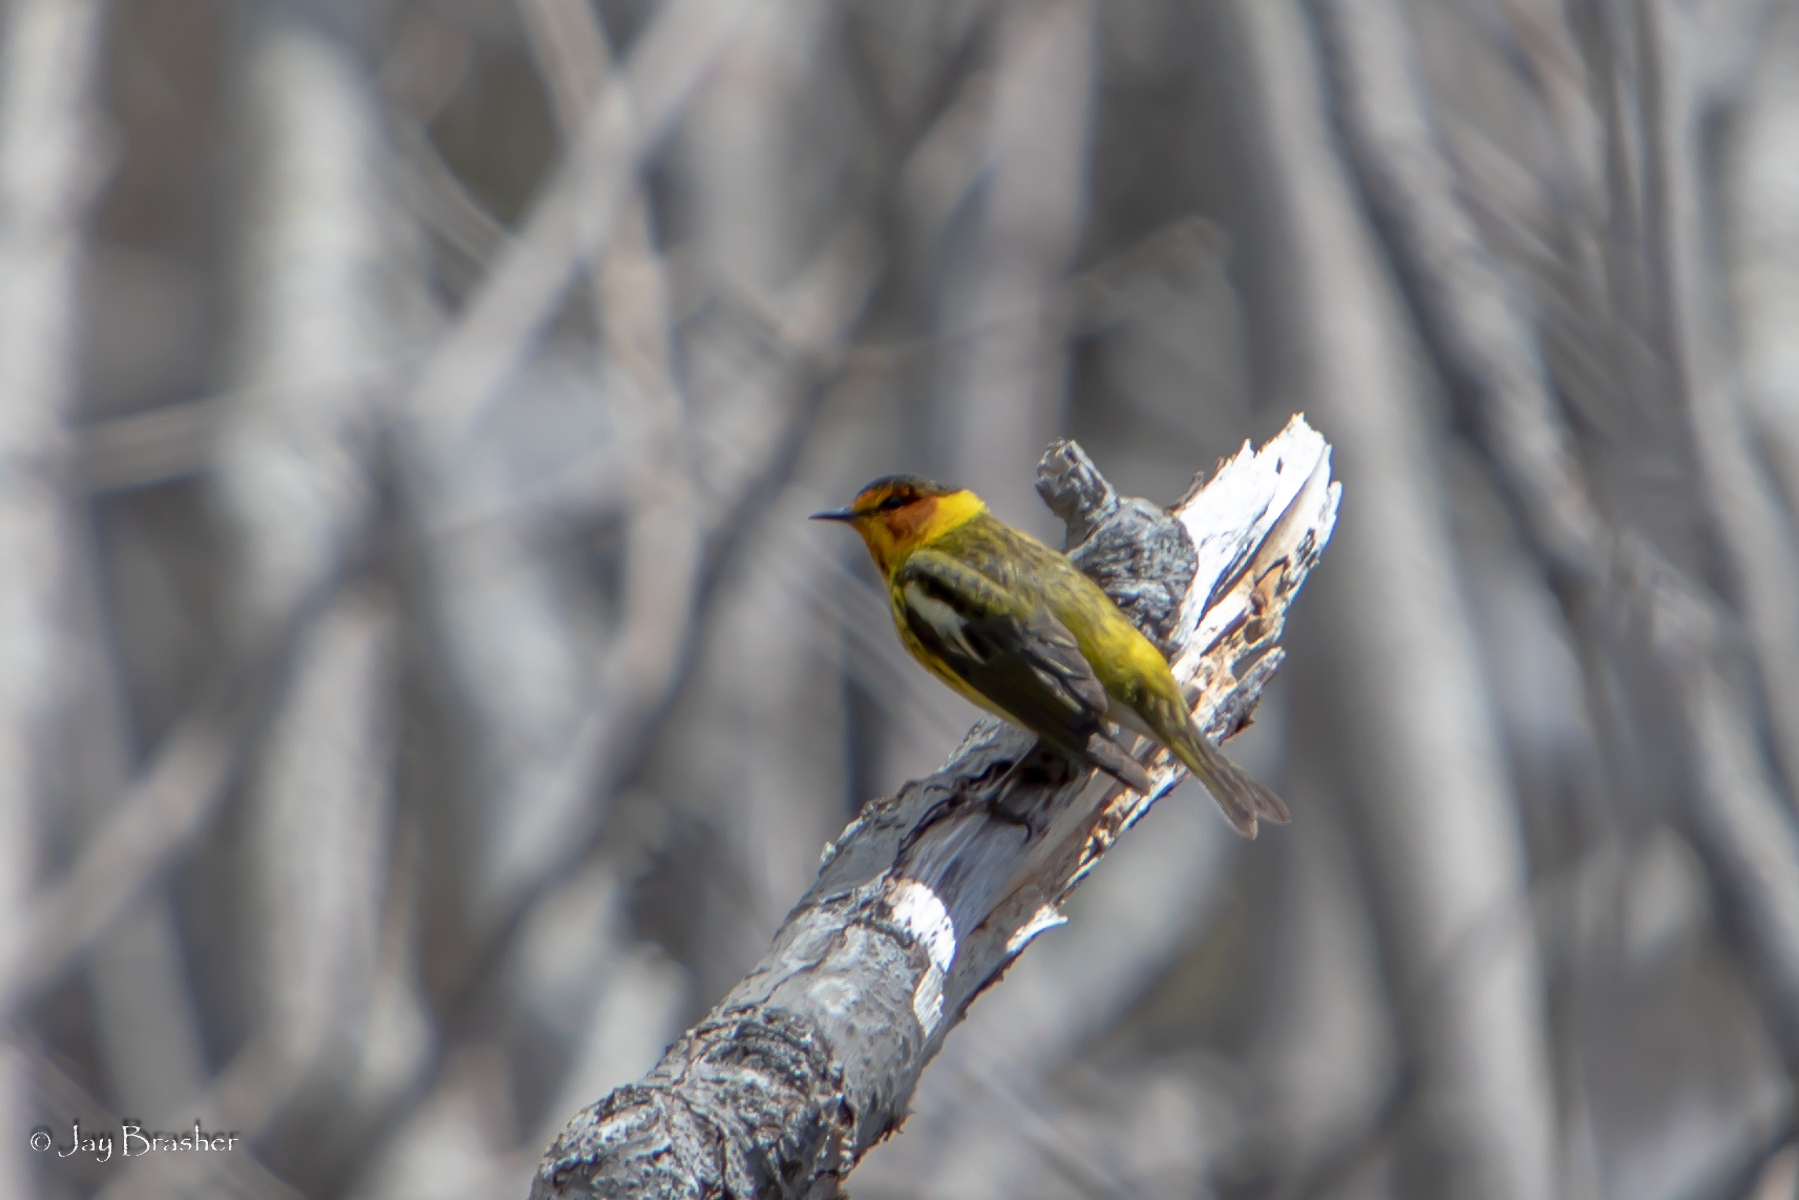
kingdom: Animalia
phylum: Chordata
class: Aves
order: Passeriformes
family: Parulidae
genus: Setophaga
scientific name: Setophaga tigrina
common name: Cape may warbler
